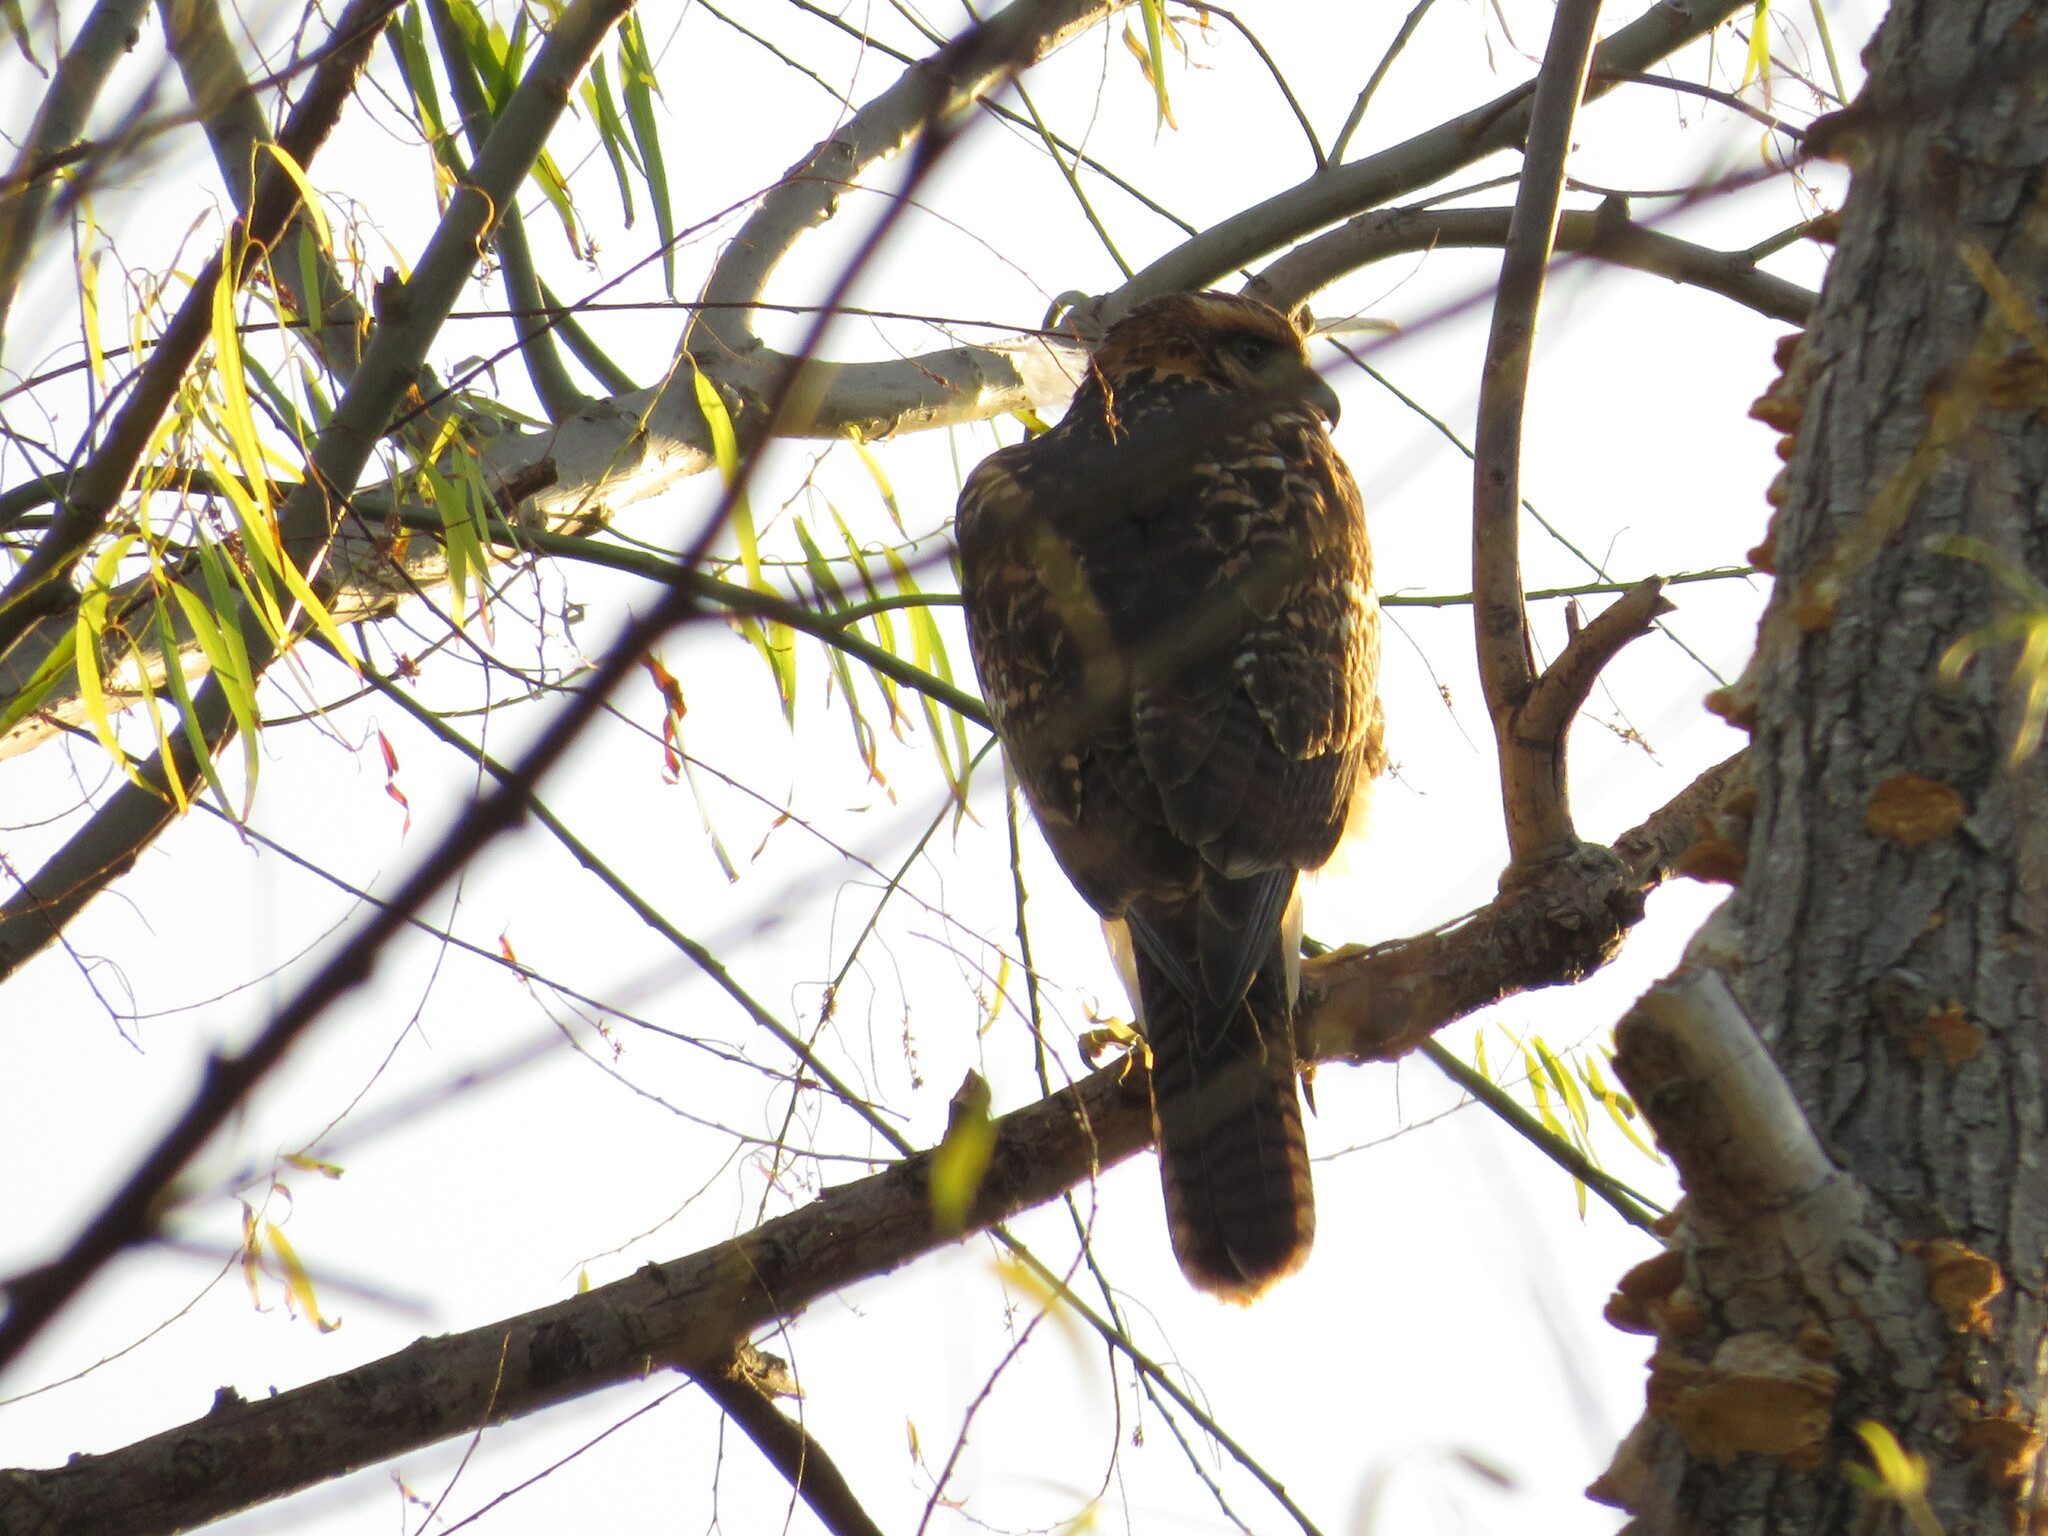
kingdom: Animalia
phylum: Chordata
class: Aves
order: Accipitriformes
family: Accipitridae
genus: Parabuteo
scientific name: Parabuteo unicinctus
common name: Harris's hawk
